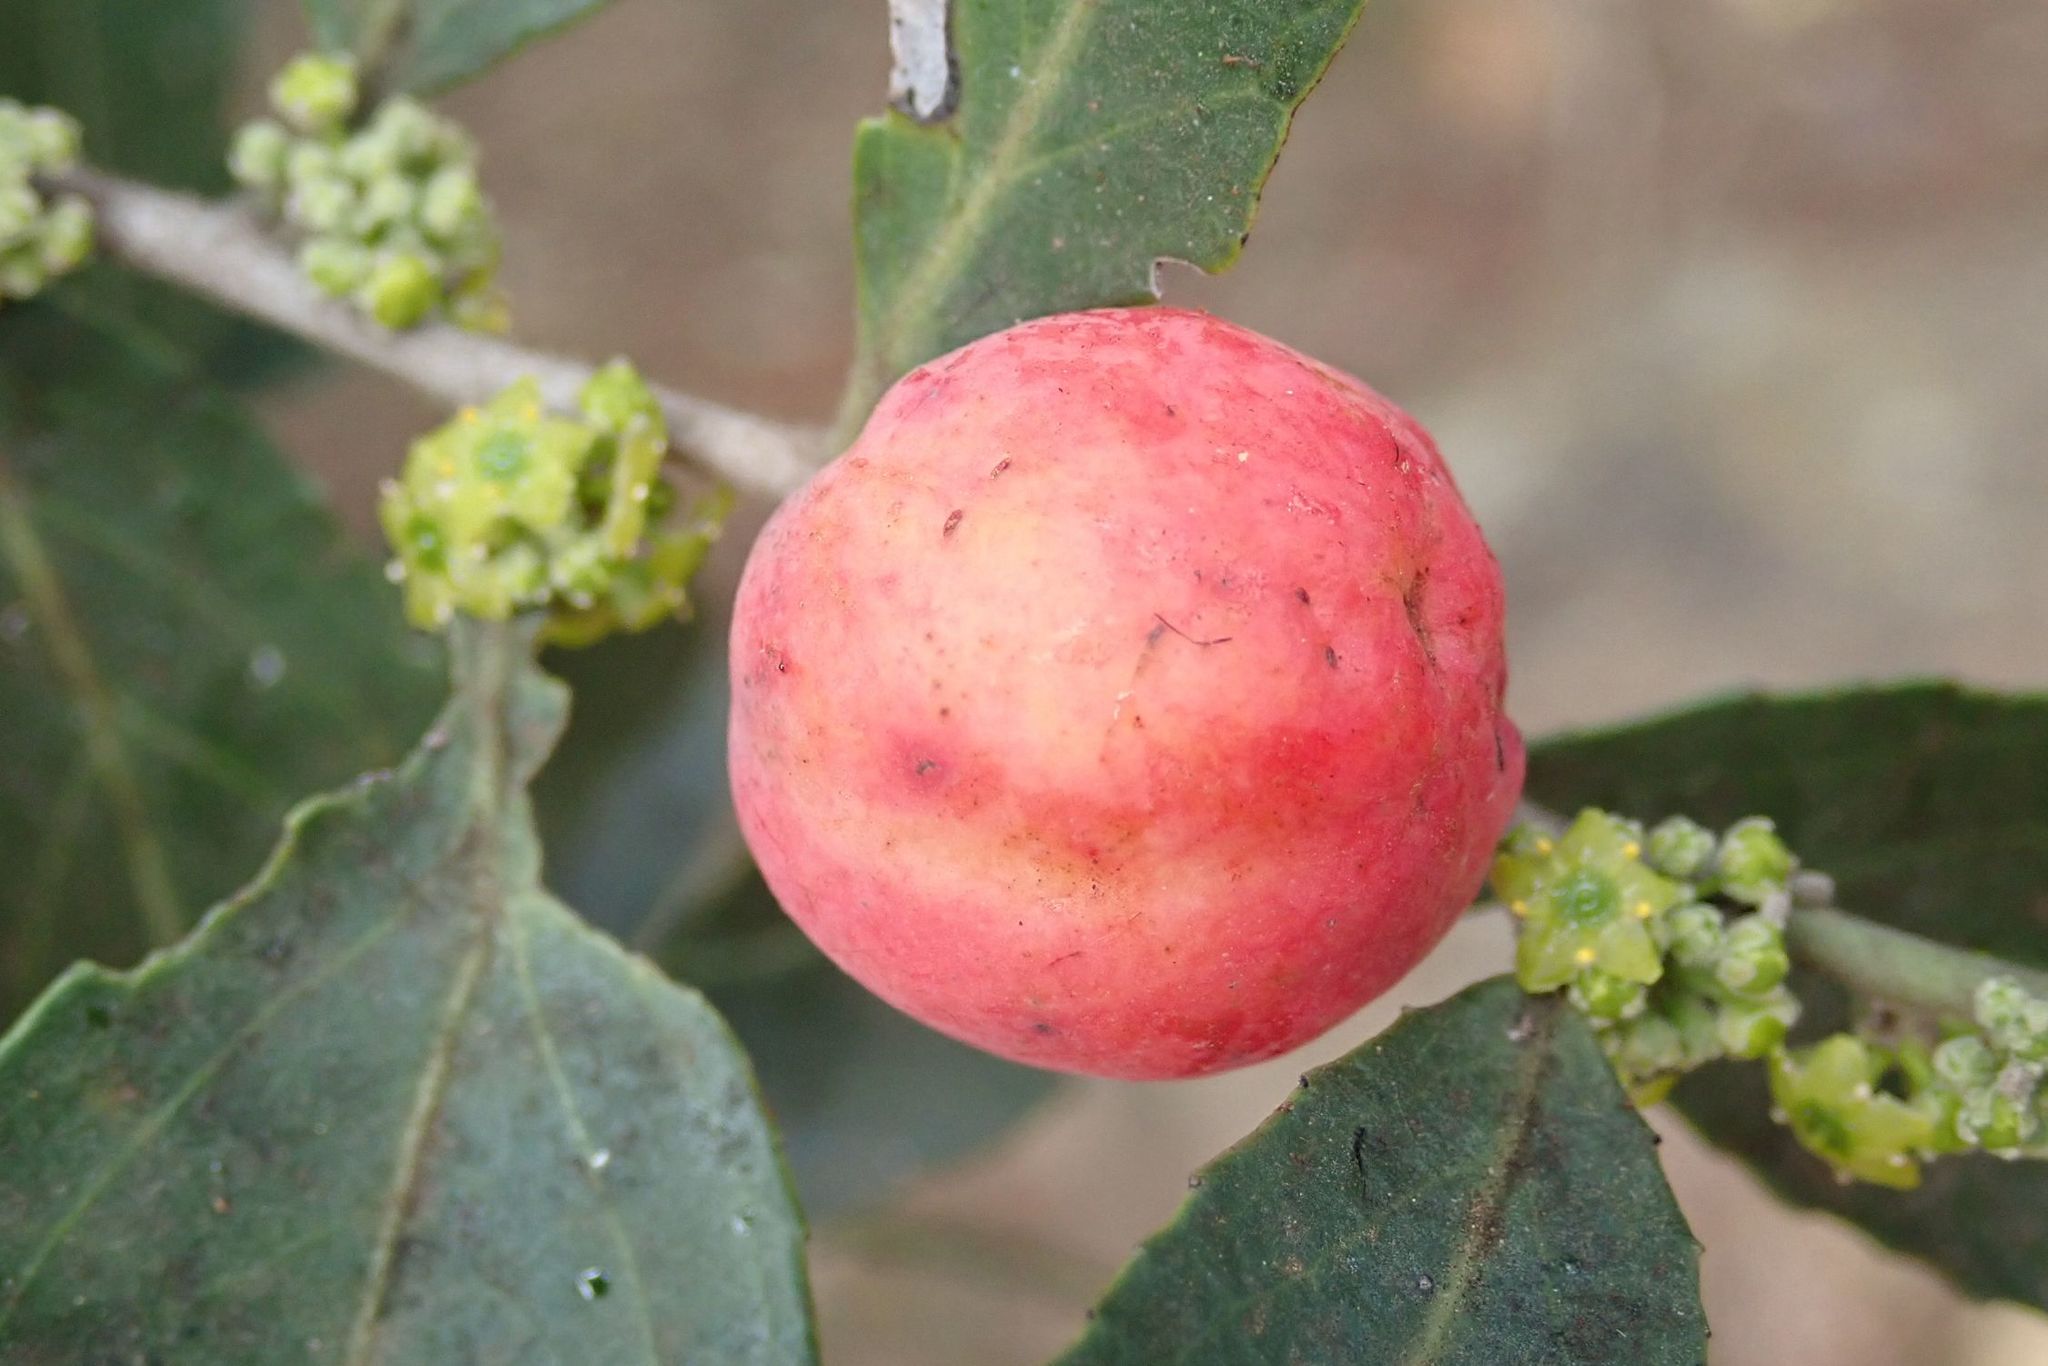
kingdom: Plantae
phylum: Tracheophyta
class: Magnoliopsida
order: Celastrales
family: Celastraceae
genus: Mystroxylon
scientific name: Mystroxylon aethiopicum
